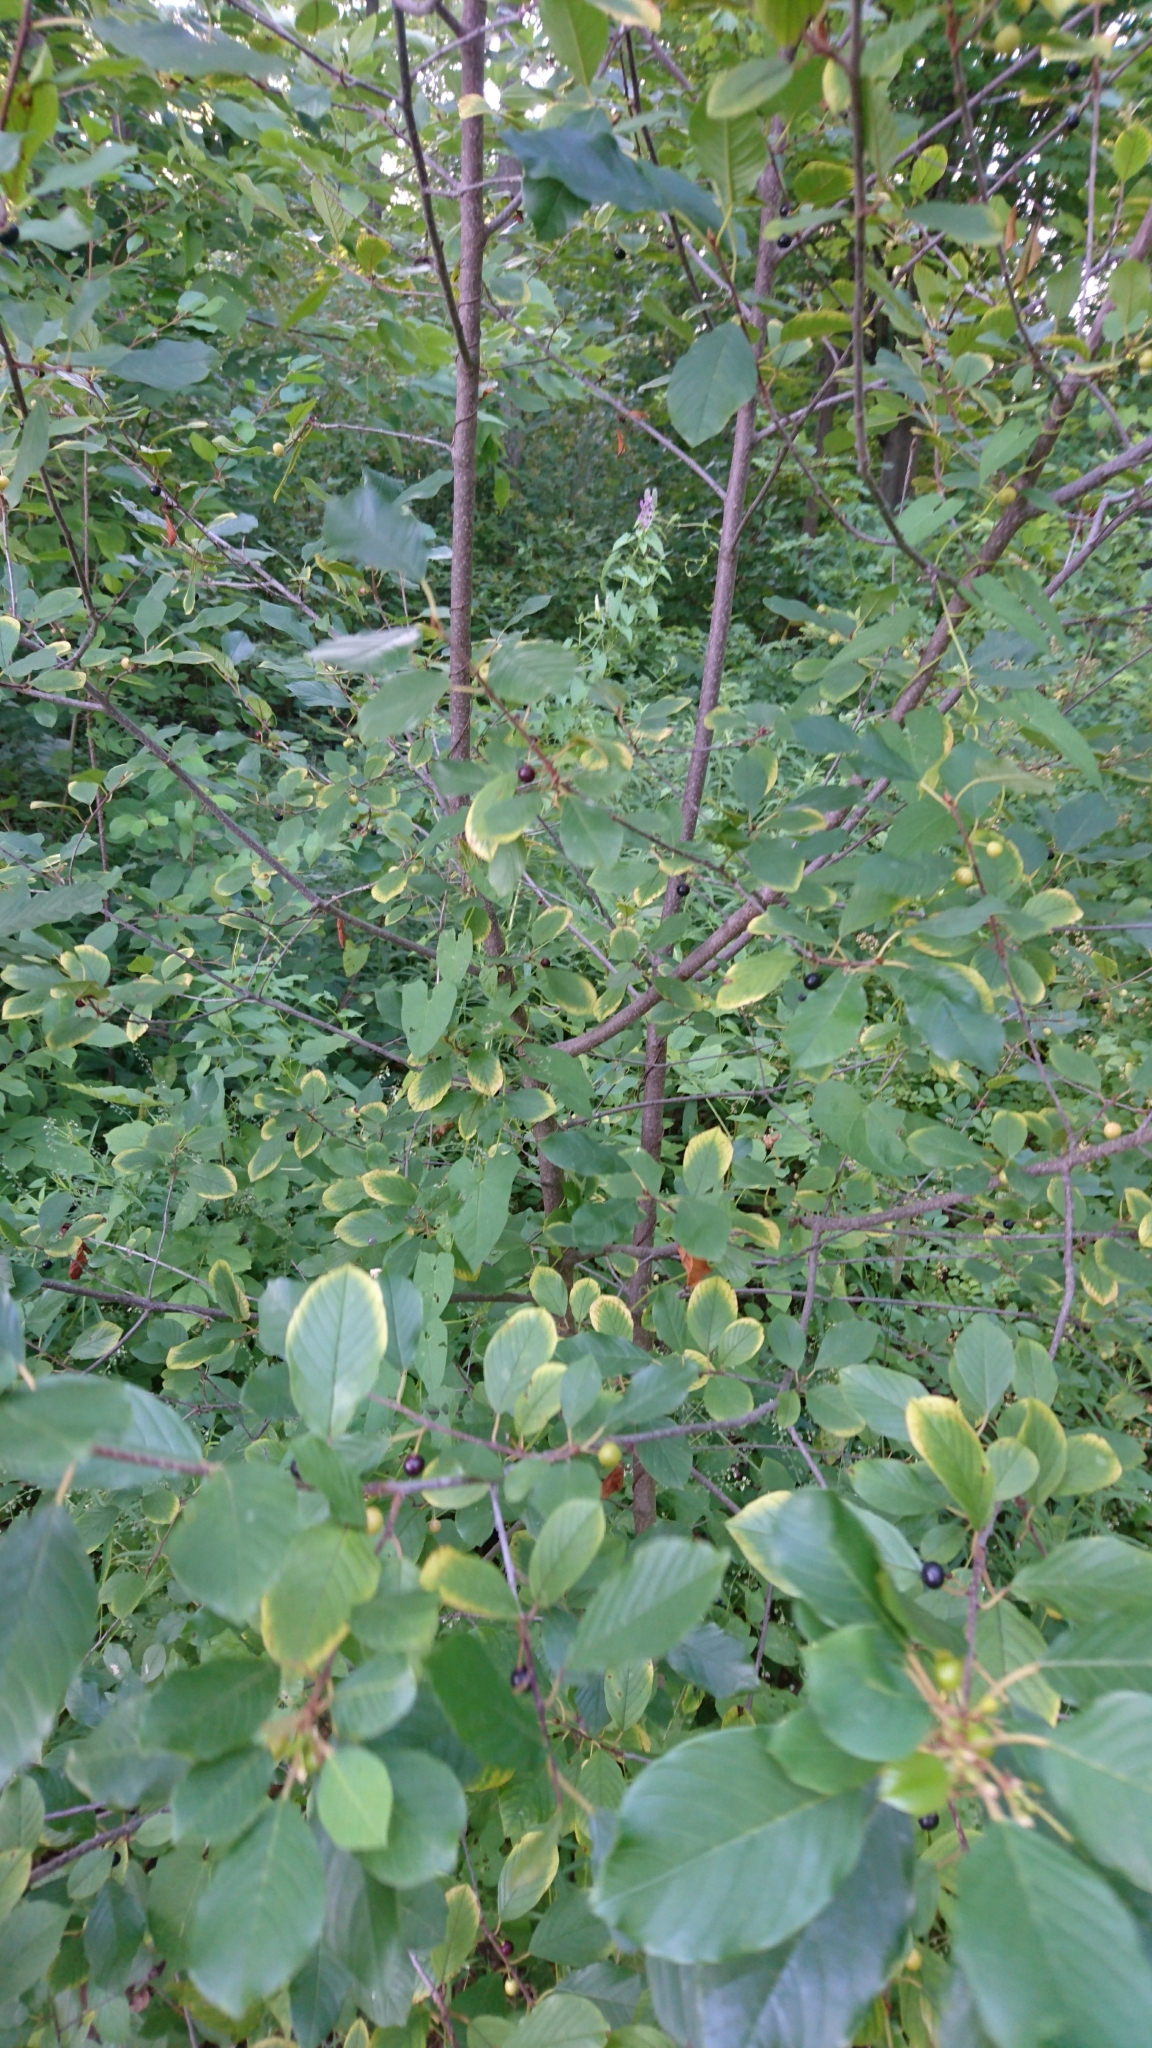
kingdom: Plantae
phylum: Tracheophyta
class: Magnoliopsida
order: Rosales
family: Rhamnaceae
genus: Frangula
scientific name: Frangula alnus
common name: Alder buckthorn
